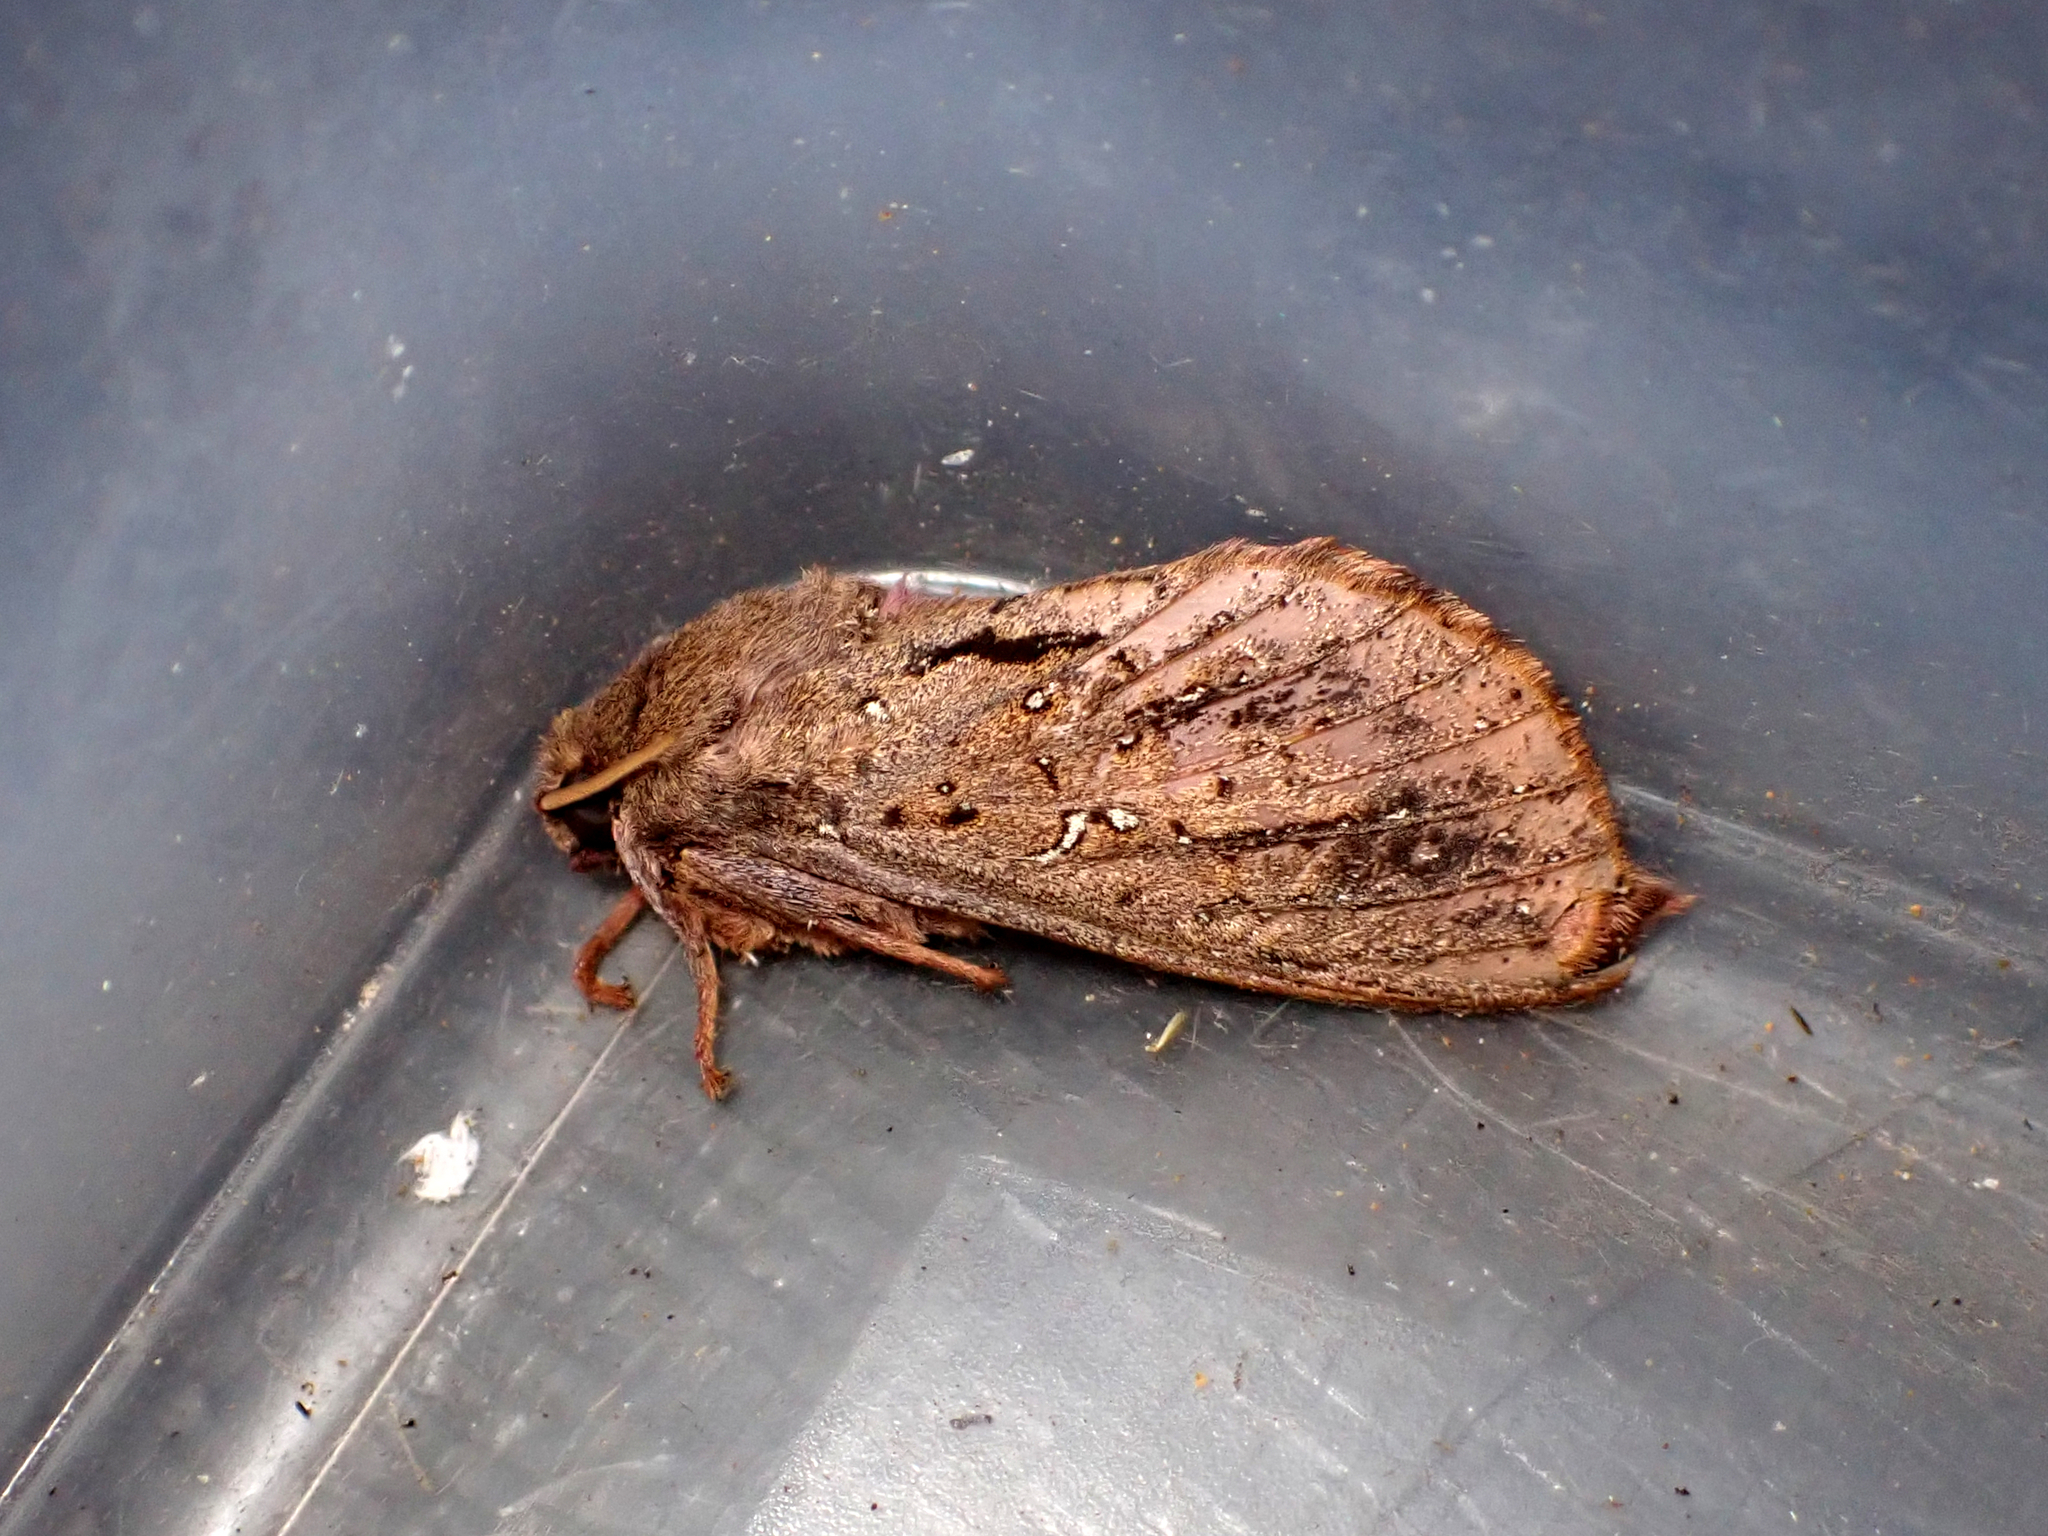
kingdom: Animalia
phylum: Arthropoda
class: Insecta
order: Lepidoptera
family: Hepialidae
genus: Dumbletonius
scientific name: Dumbletonius unimaculata
